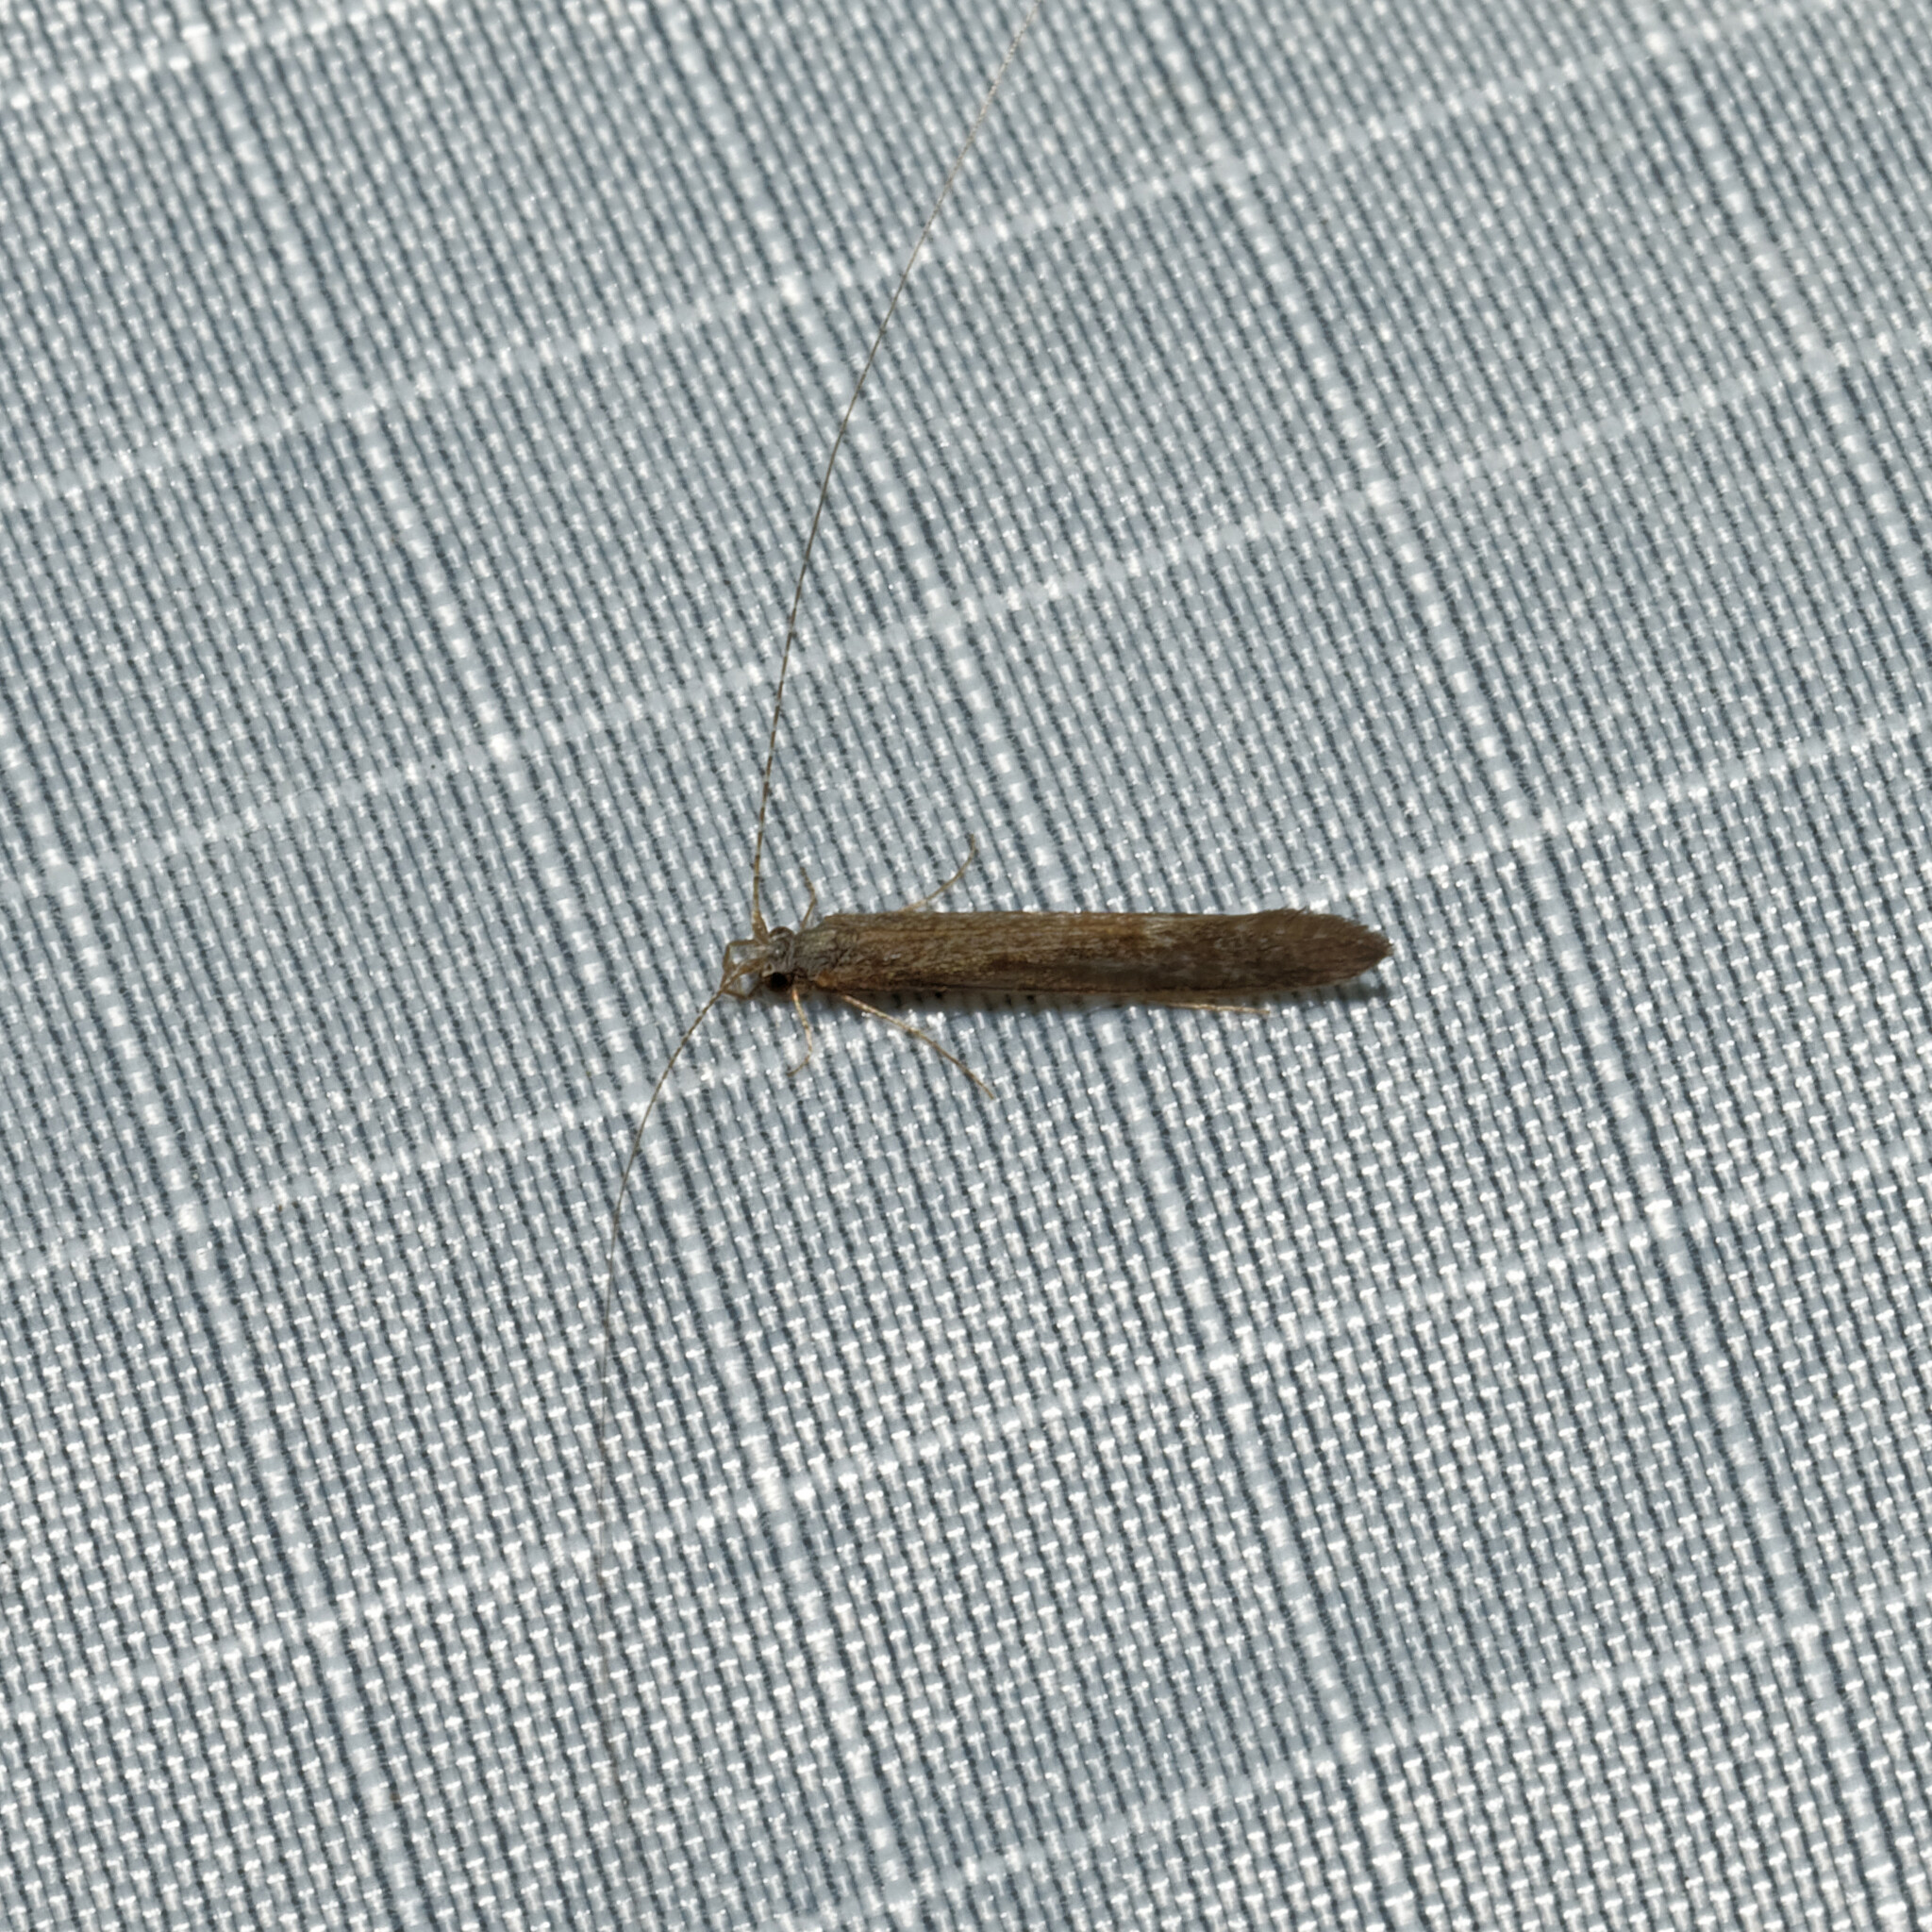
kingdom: Animalia
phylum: Arthropoda
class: Insecta
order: Trichoptera
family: Leptoceridae
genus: Leptocerus
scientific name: Leptocerus americanus
